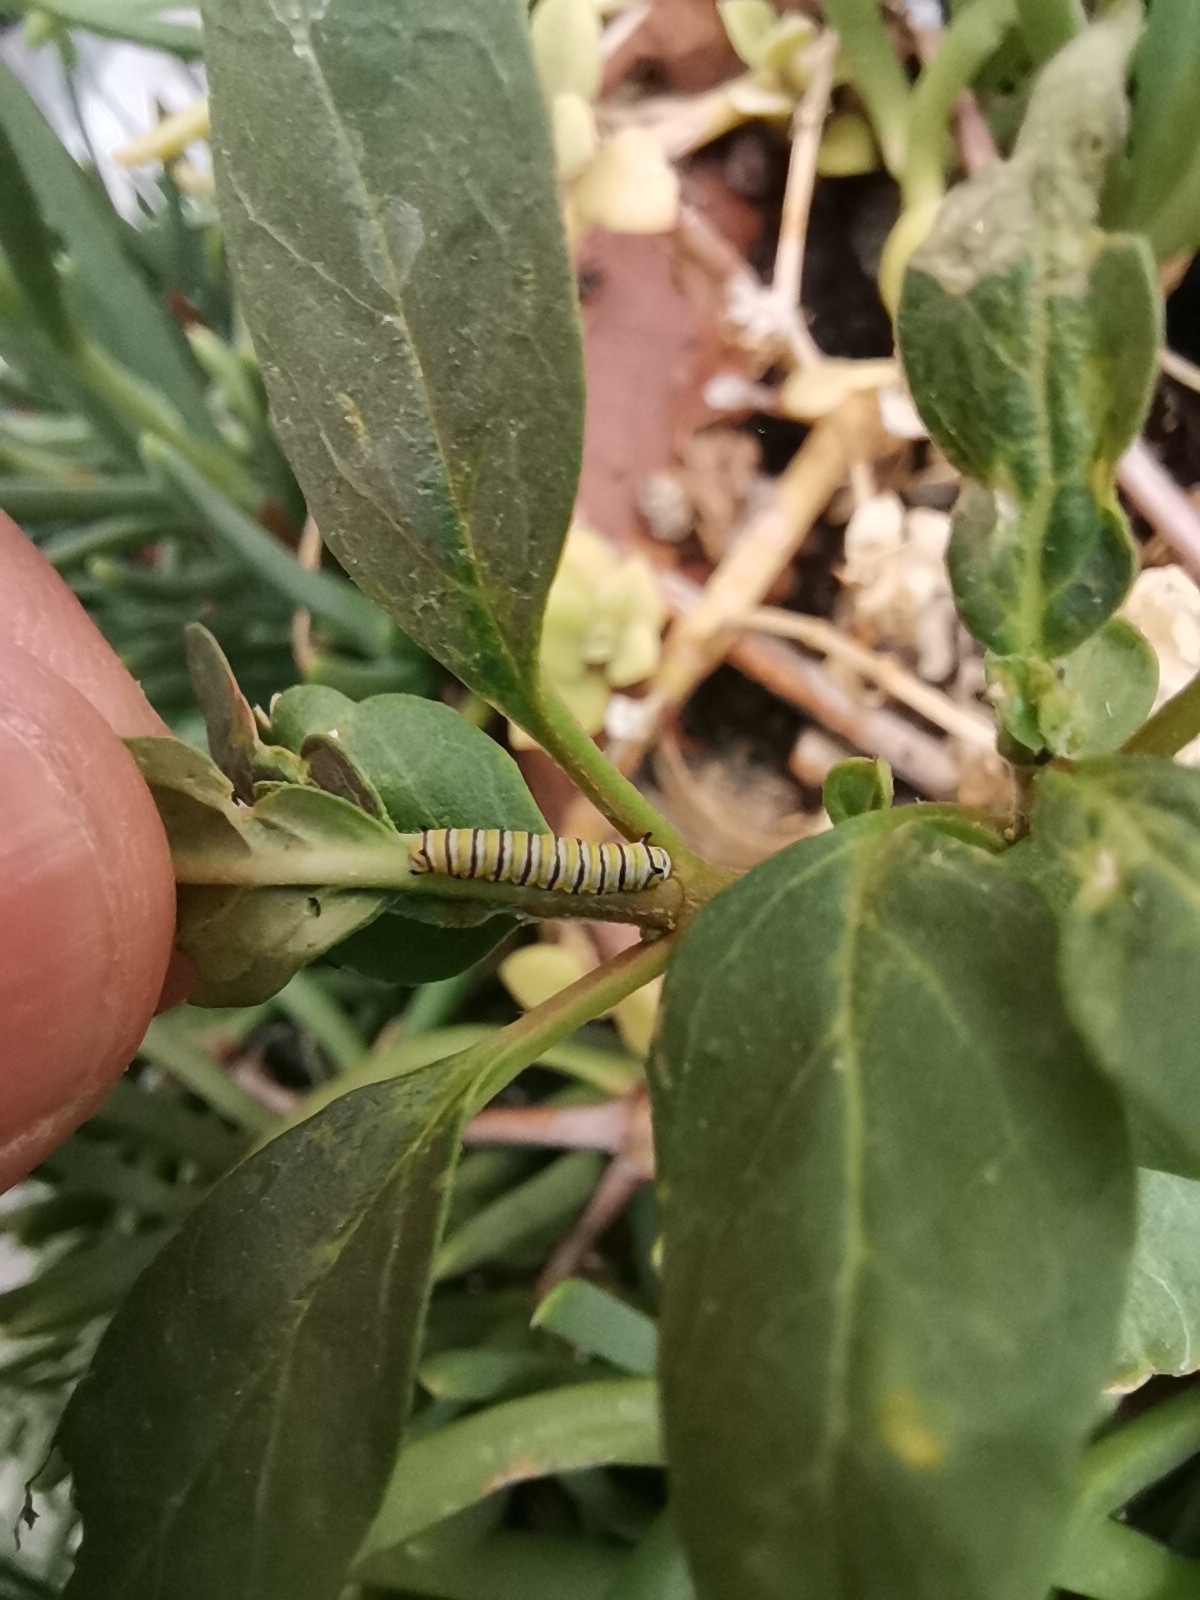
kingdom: Animalia
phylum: Arthropoda
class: Insecta
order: Lepidoptera
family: Nymphalidae
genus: Danaus
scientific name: Danaus plexippus
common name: Monarch
